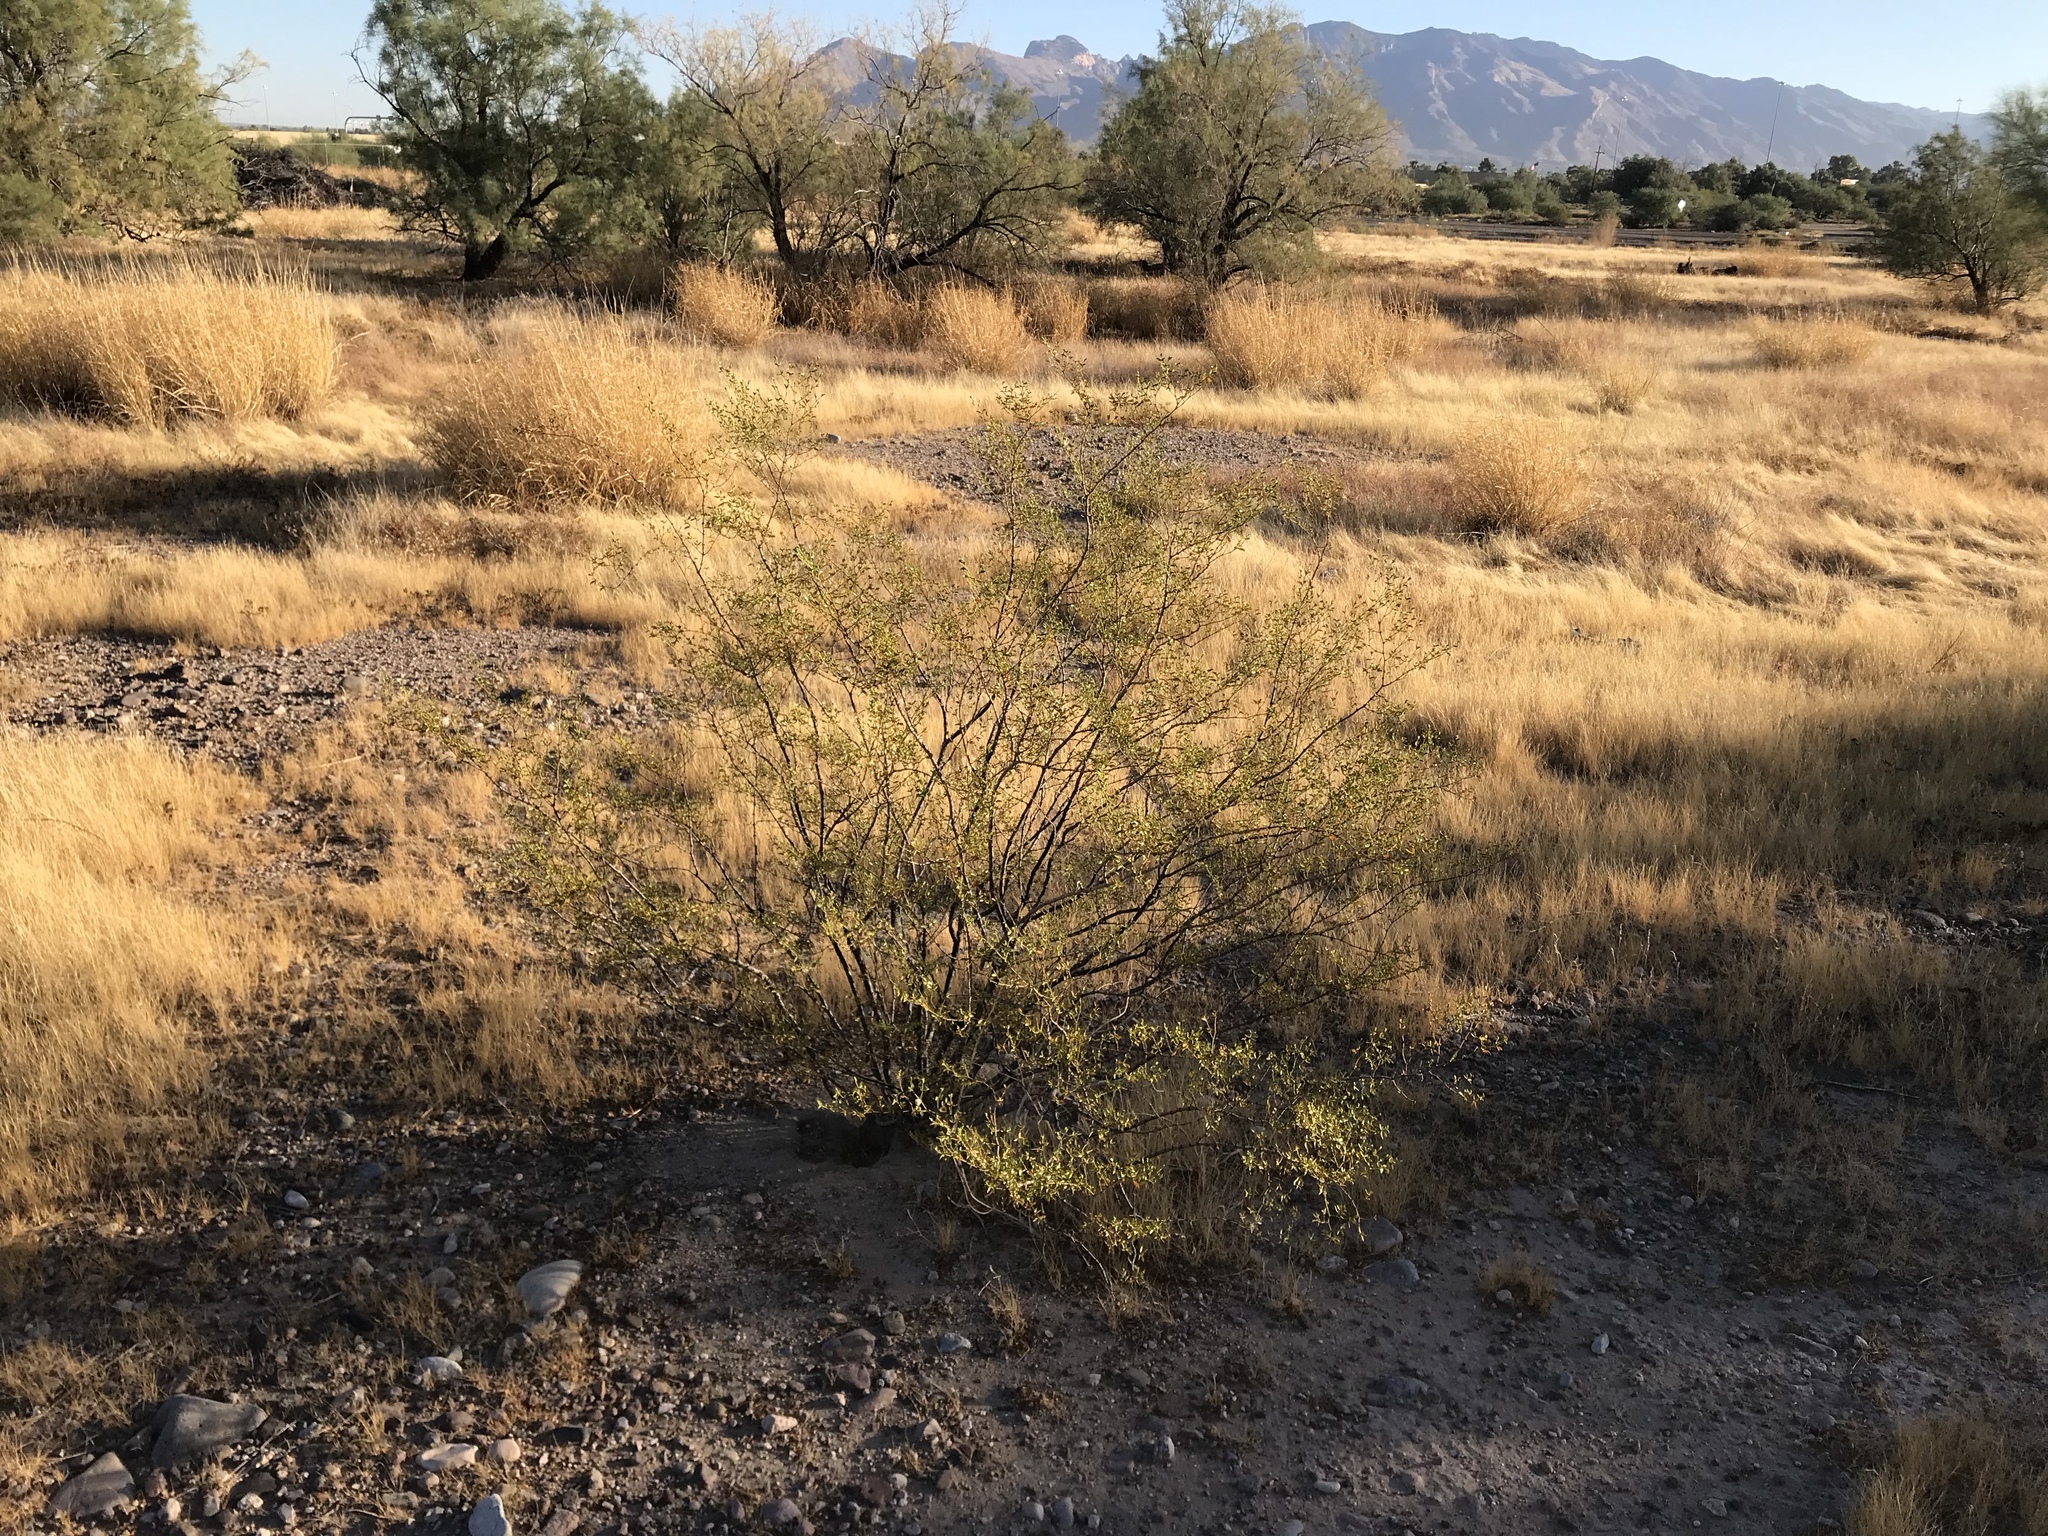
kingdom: Plantae
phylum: Tracheophyta
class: Magnoliopsida
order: Zygophyllales
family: Zygophyllaceae
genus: Larrea
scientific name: Larrea tridentata
